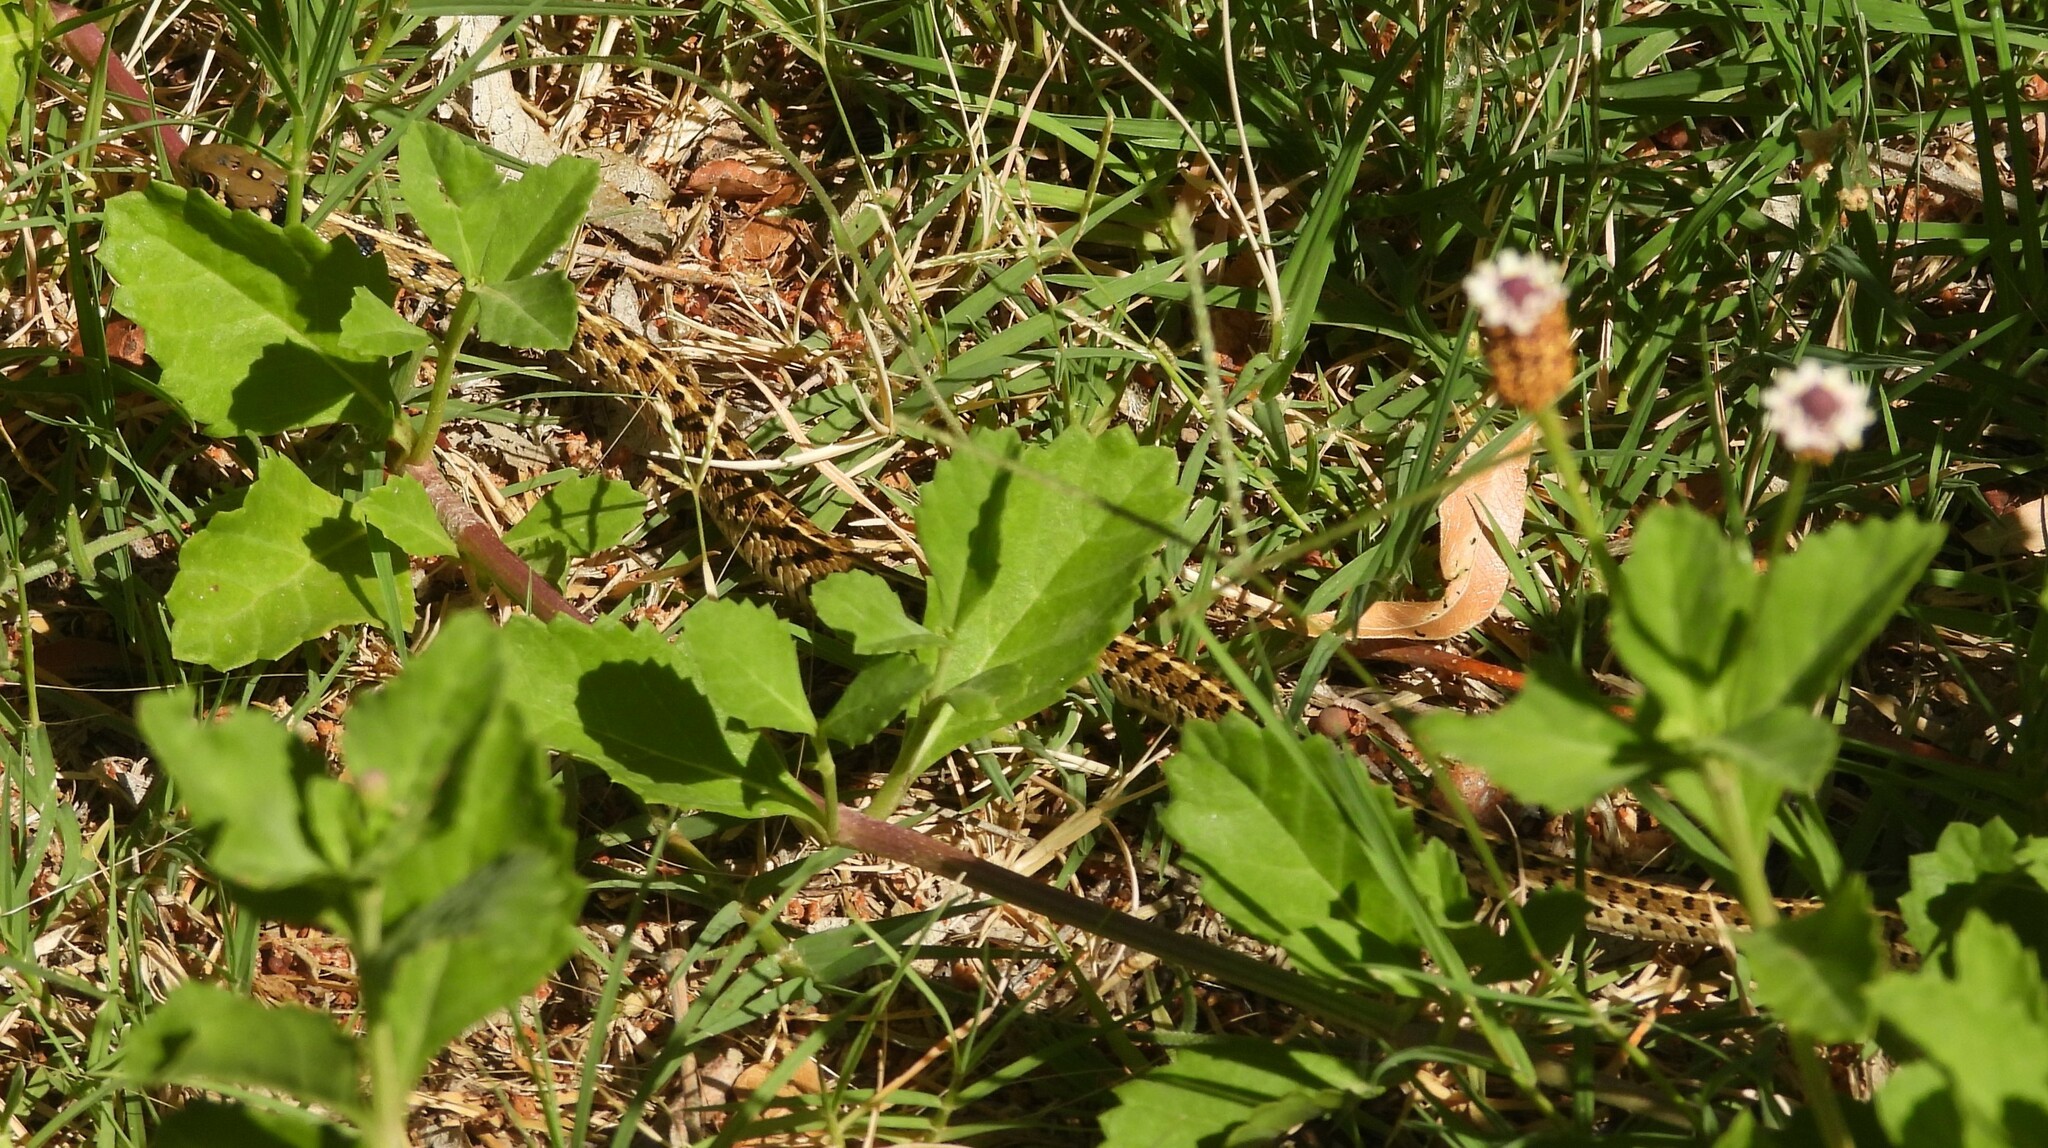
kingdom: Animalia
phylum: Chordata
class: Squamata
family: Colubridae
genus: Thamnophis
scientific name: Thamnophis marcianus
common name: Checkered garter snake
